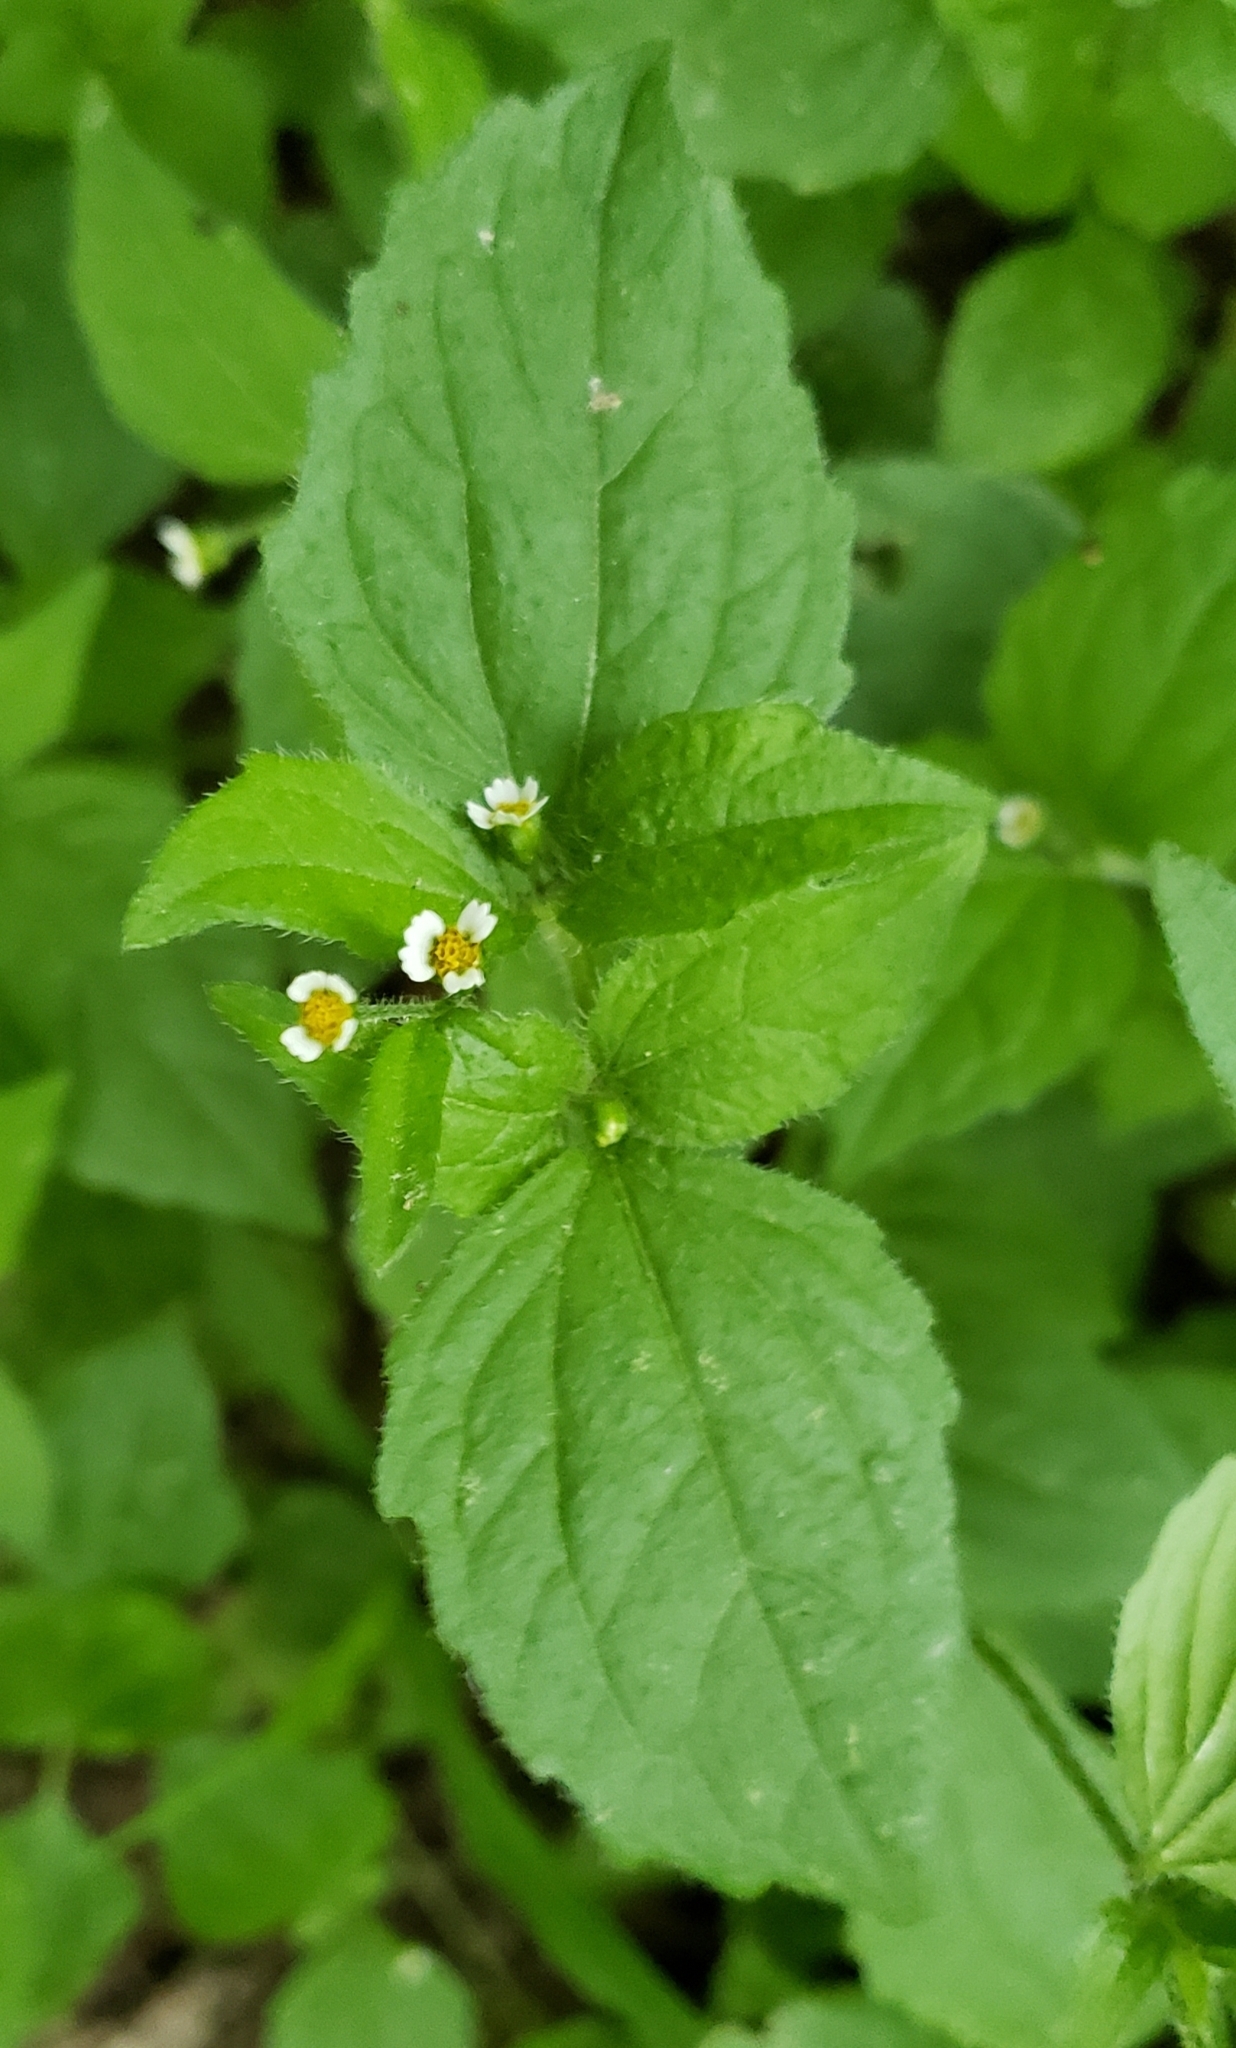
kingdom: Plantae
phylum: Tracheophyta
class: Magnoliopsida
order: Asterales
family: Asteraceae
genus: Galinsoga
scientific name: Galinsoga quadriradiata
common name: Shaggy soldier
